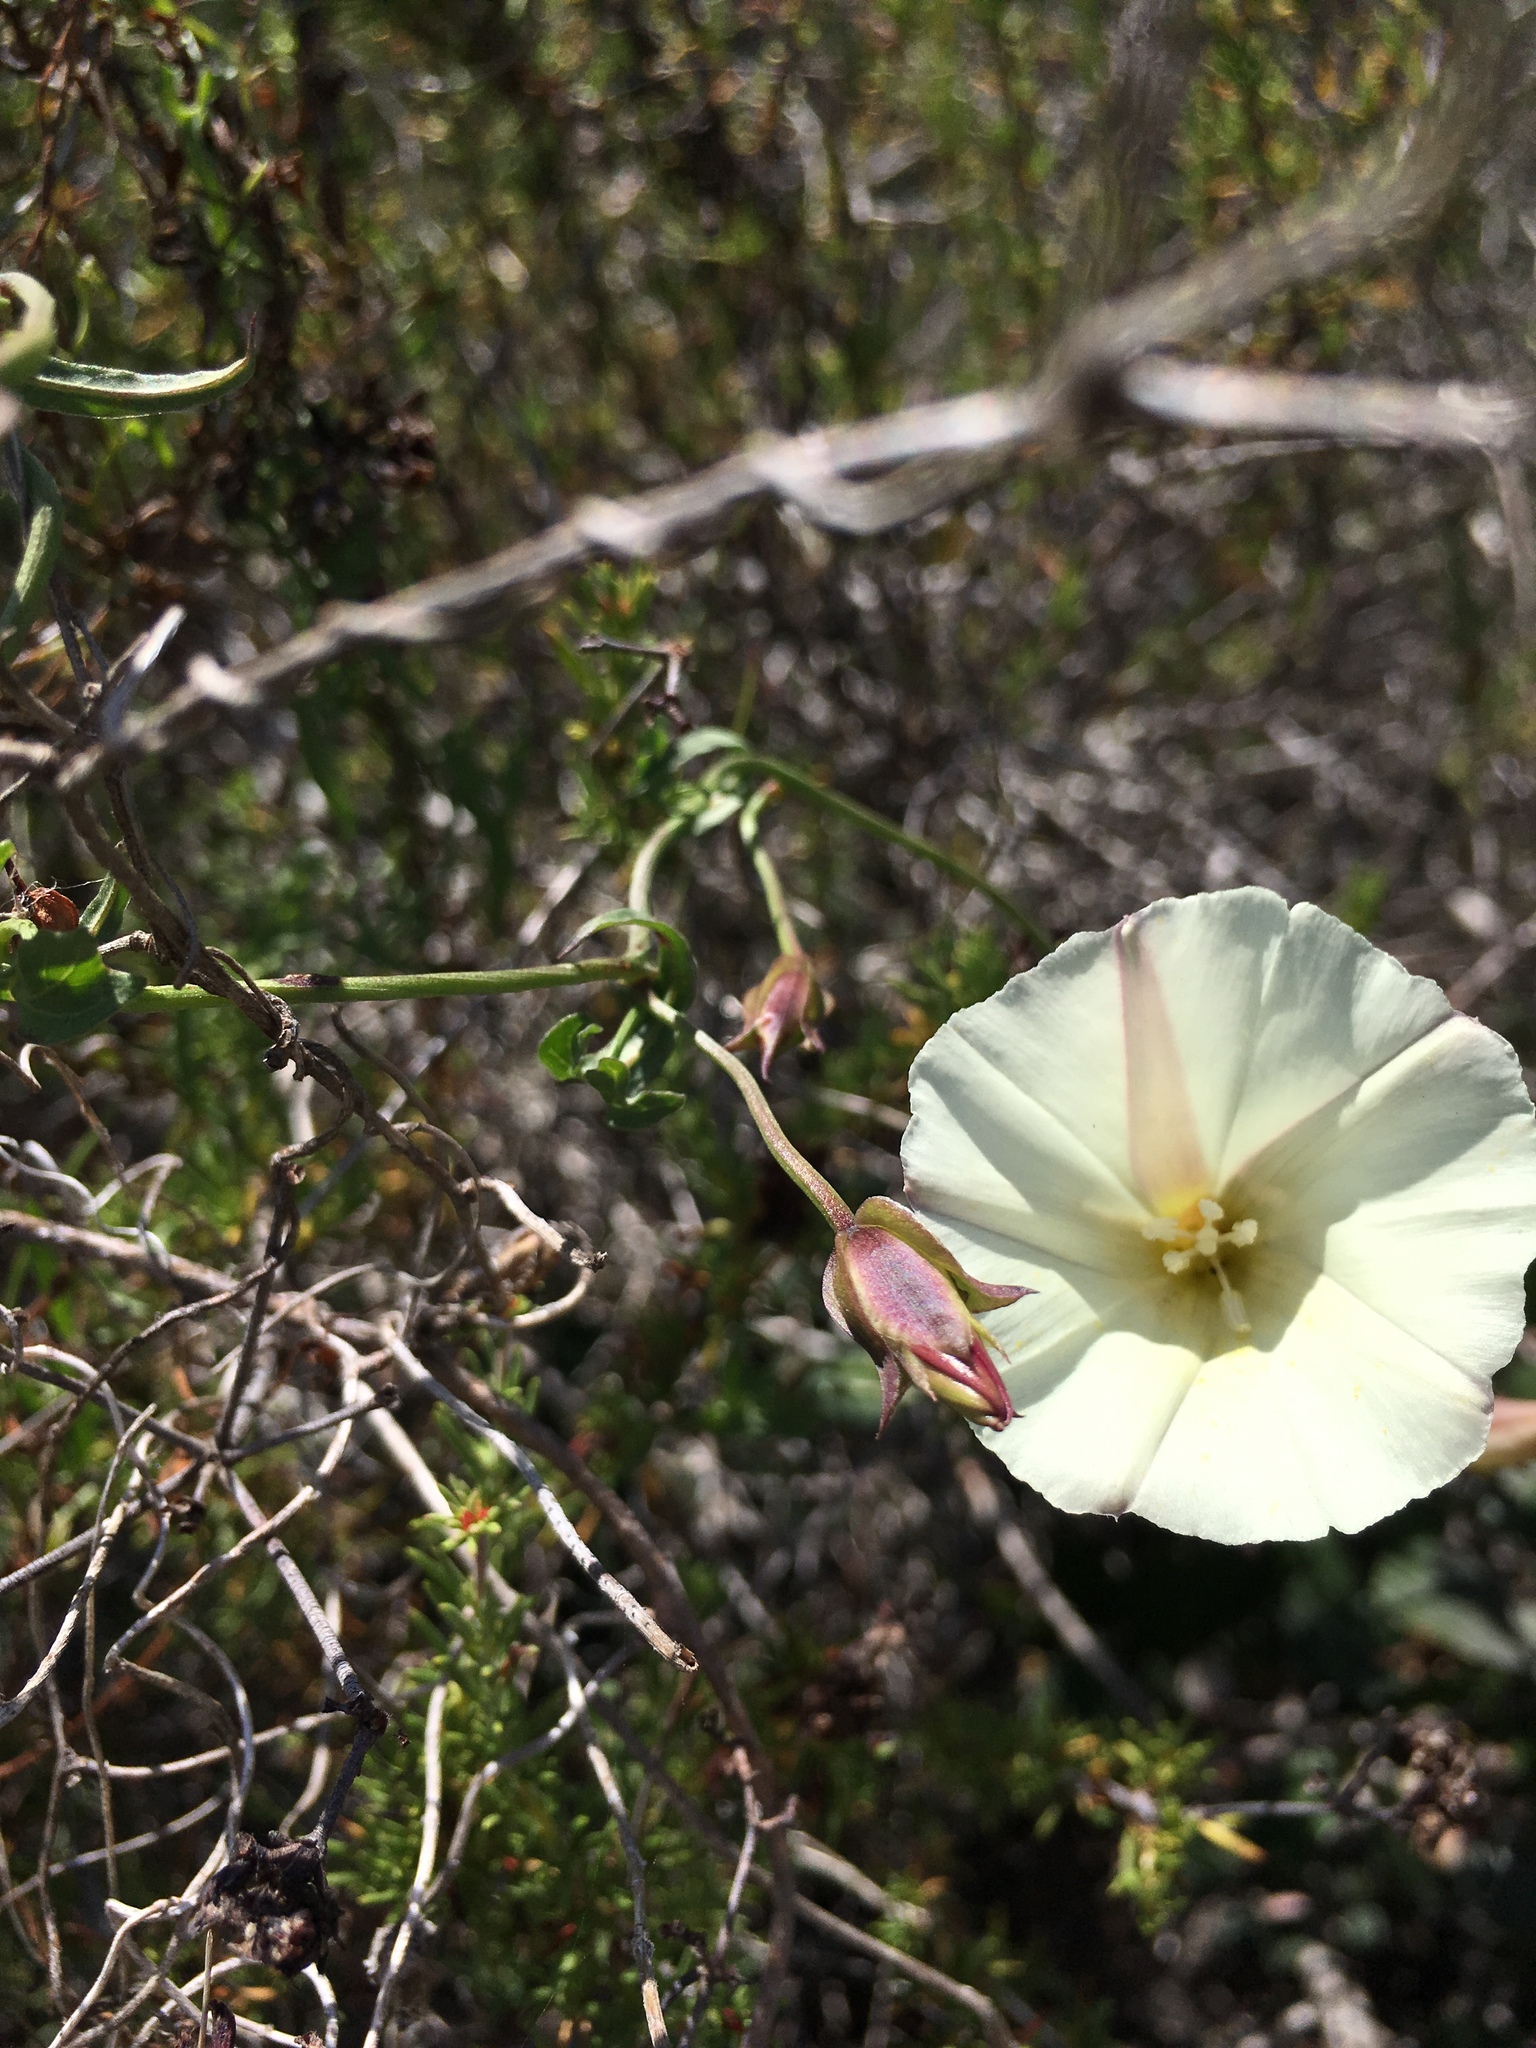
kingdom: Plantae
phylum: Tracheophyta
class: Magnoliopsida
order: Solanales
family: Convolvulaceae
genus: Calystegia
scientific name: Calystegia macrostegia
